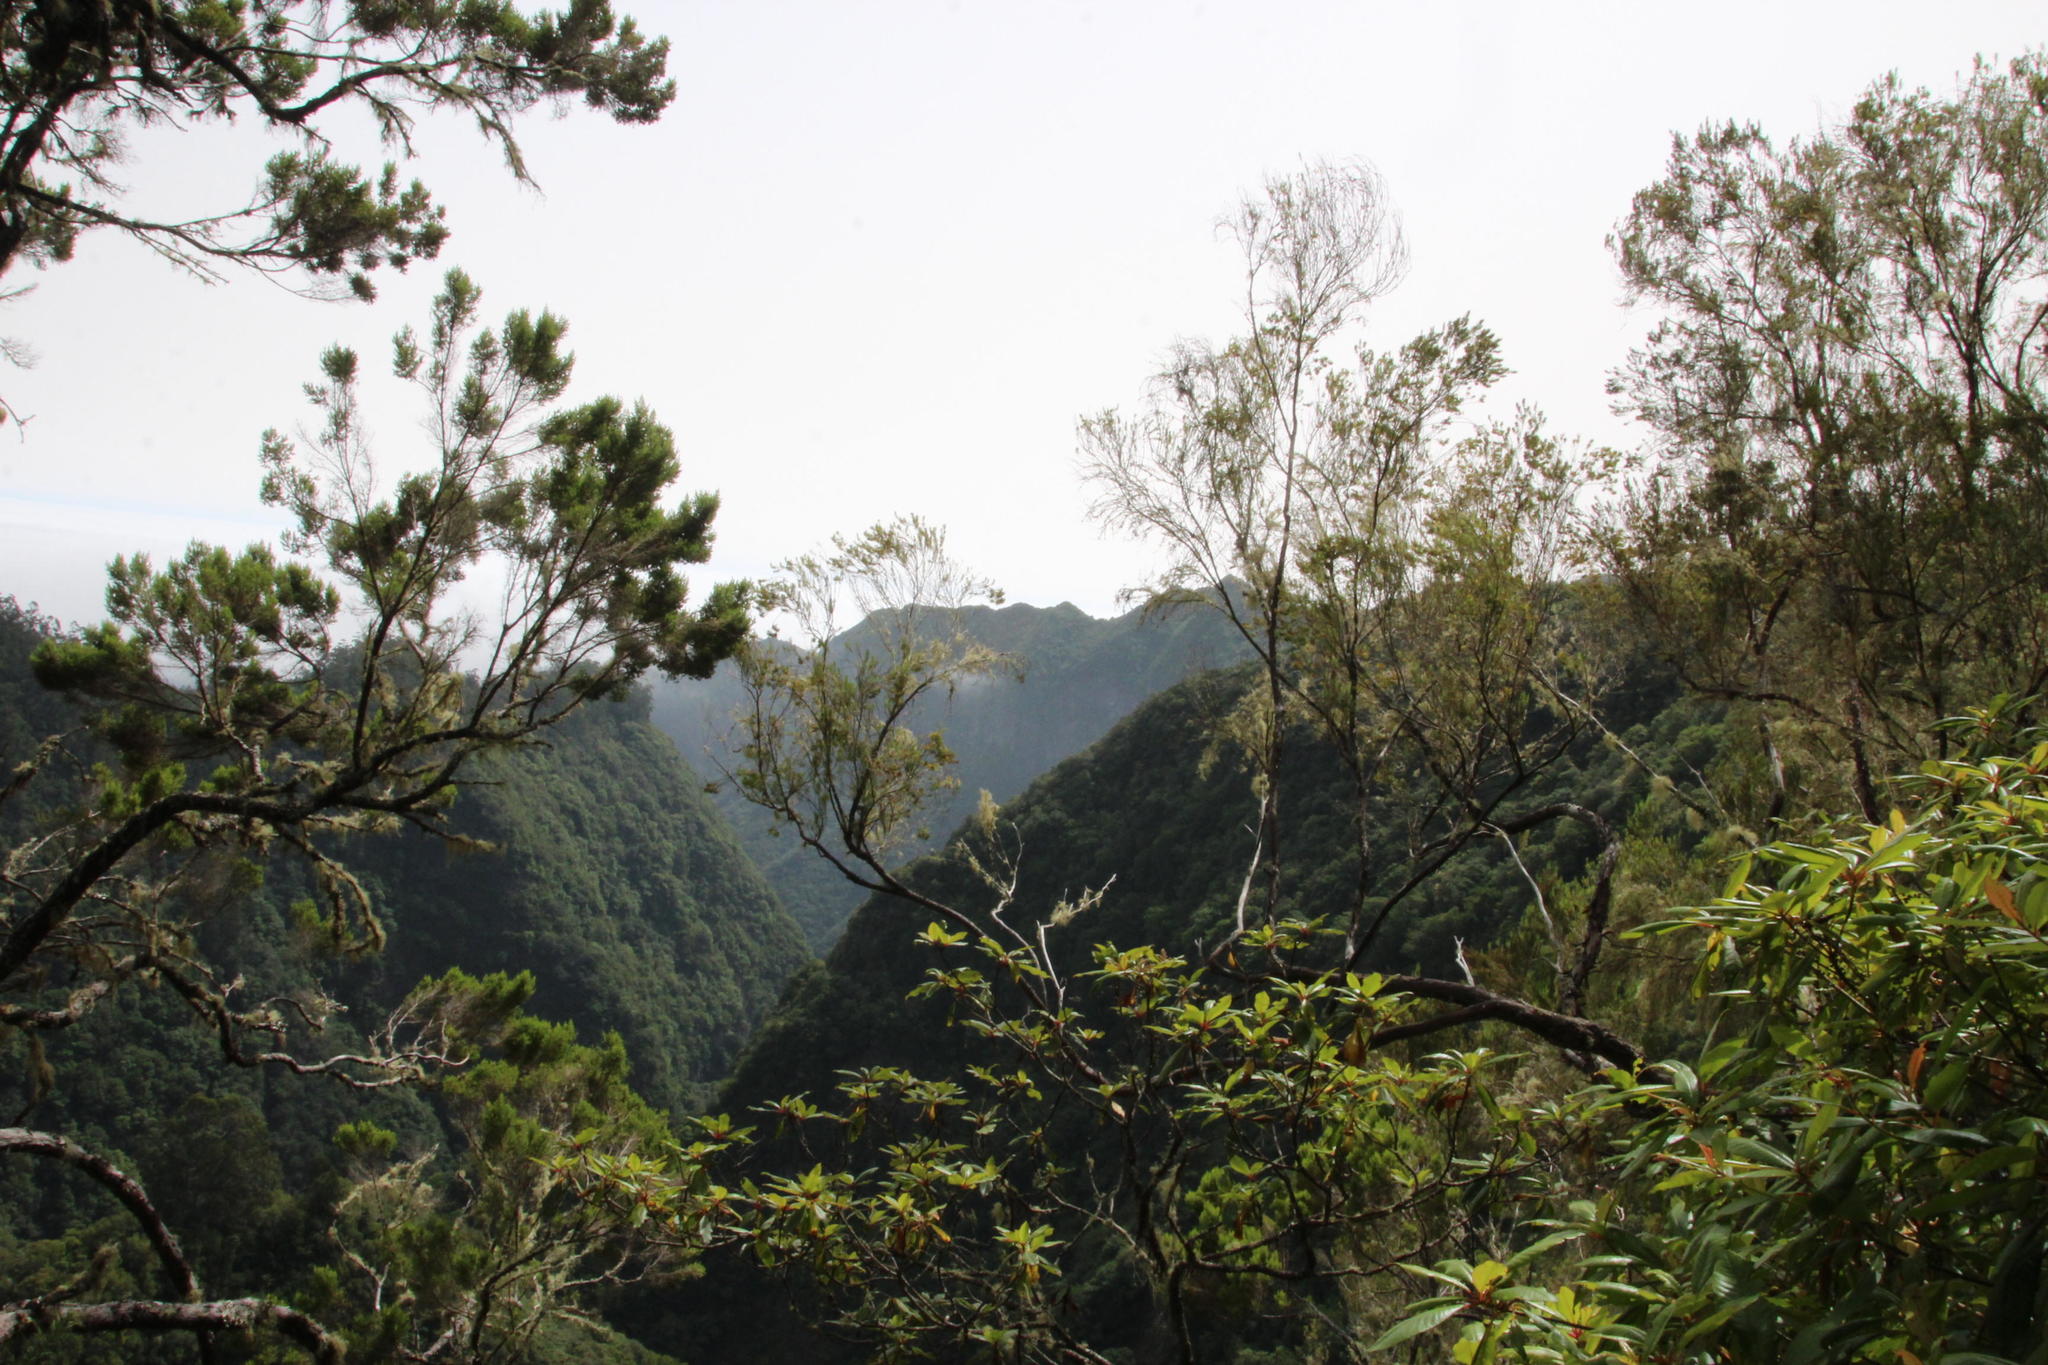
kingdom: Plantae
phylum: Tracheophyta
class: Magnoliopsida
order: Ericales
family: Ericaceae
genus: Erica
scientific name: Erica platycodon
